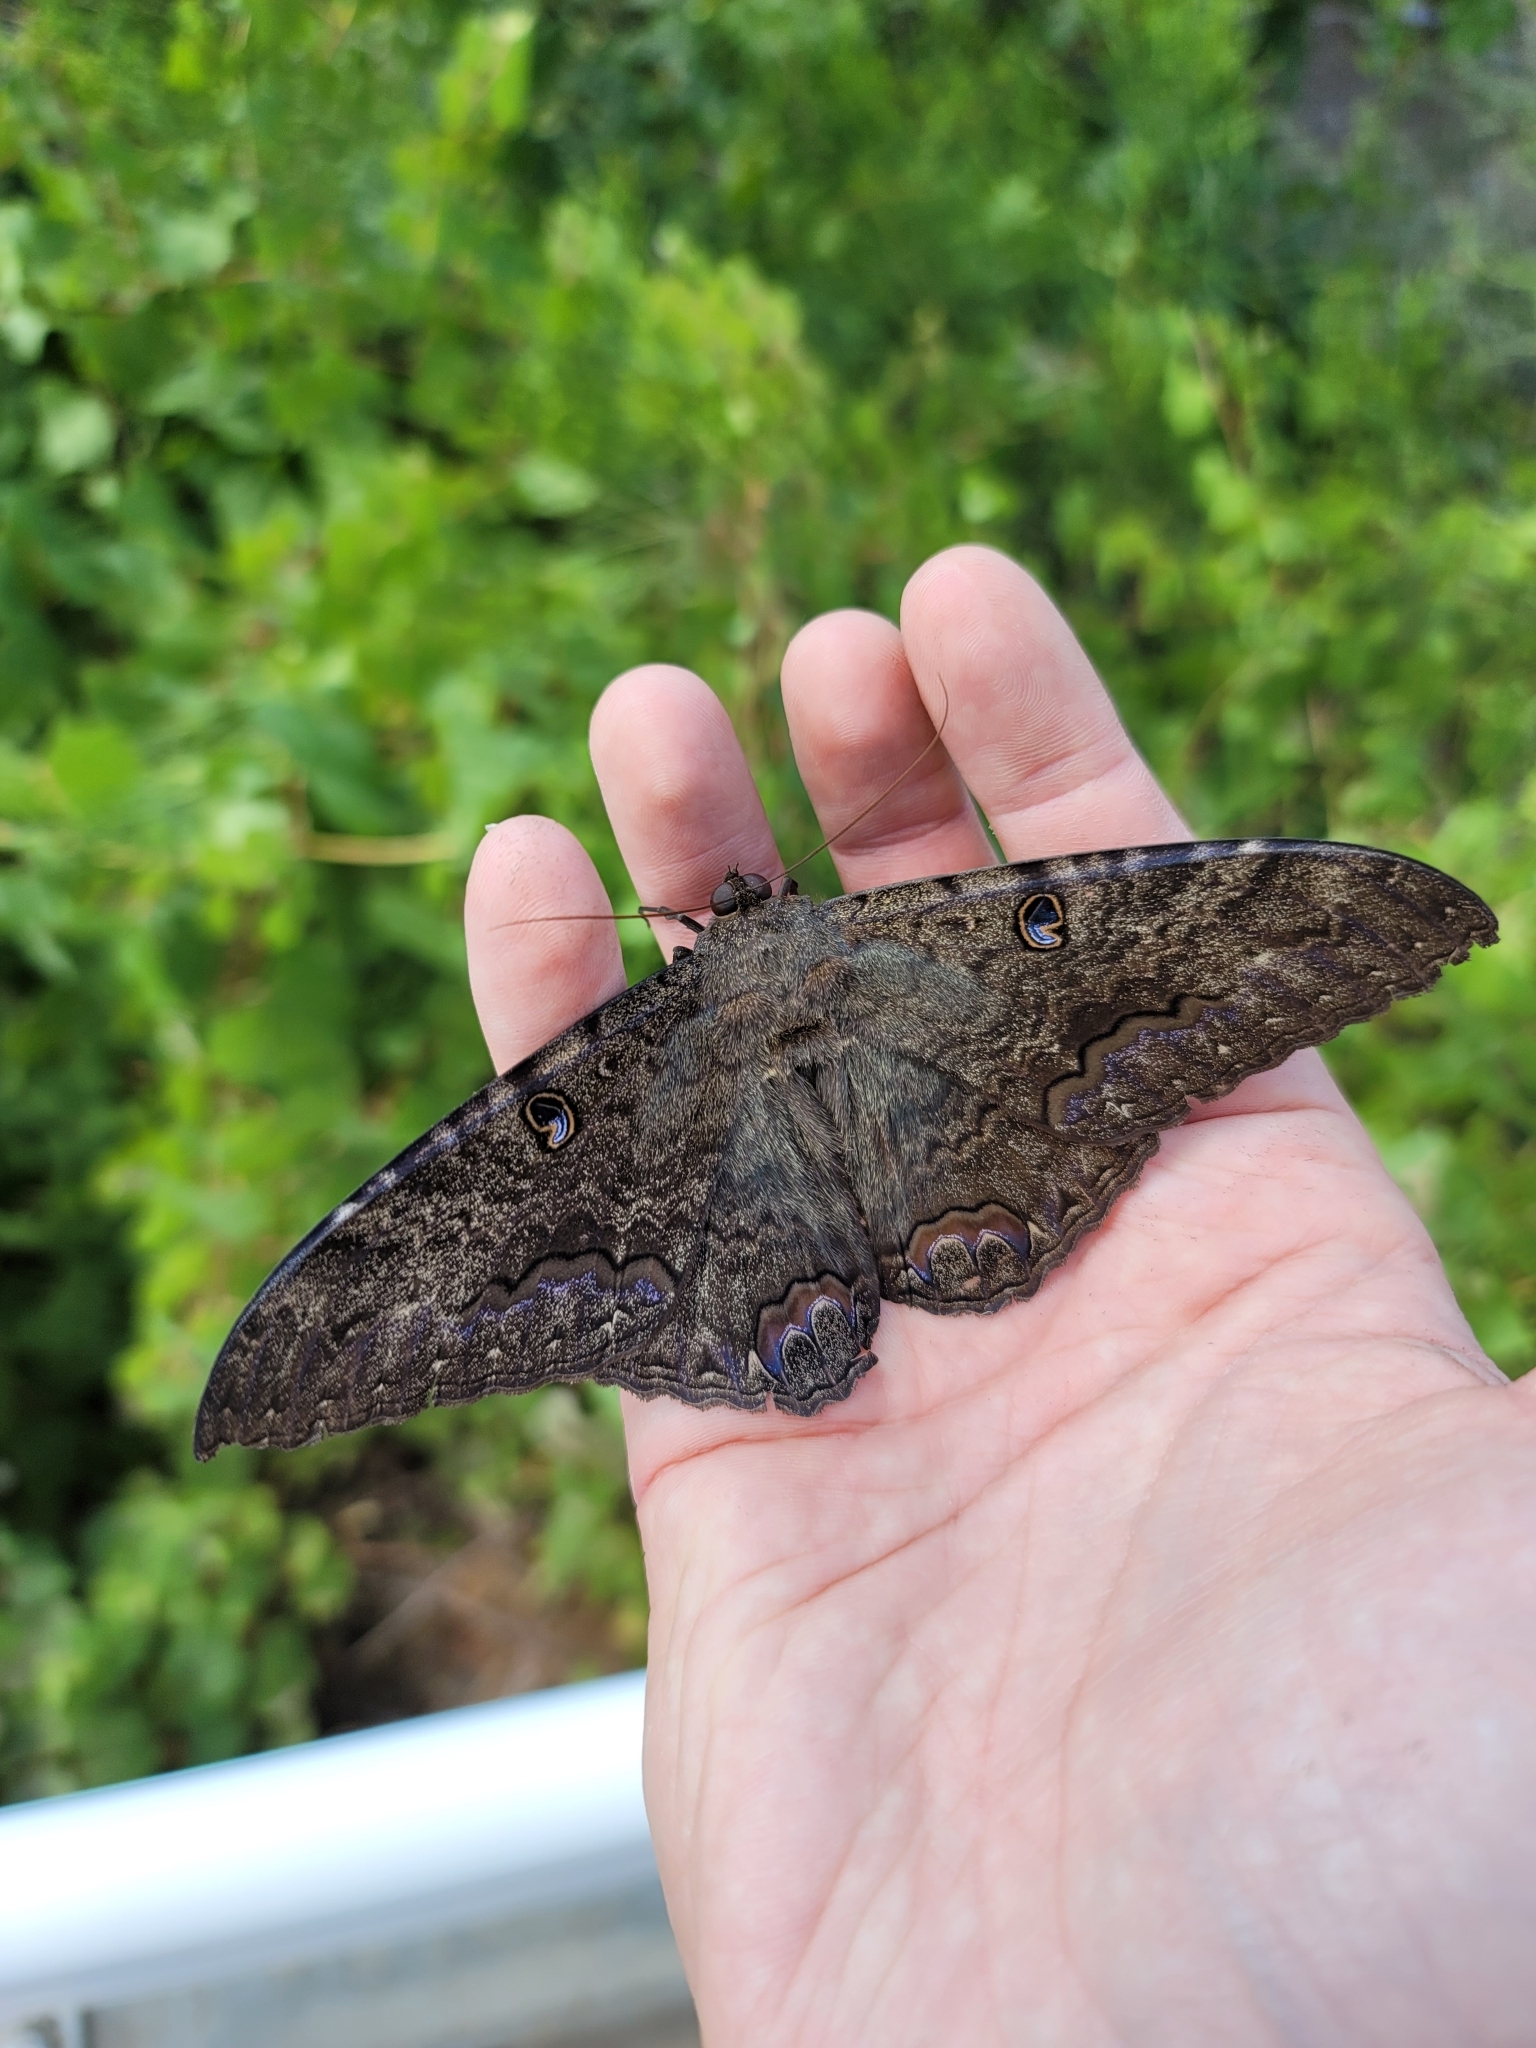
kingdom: Animalia
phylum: Arthropoda
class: Insecta
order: Lepidoptera
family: Erebidae
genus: Ascalapha
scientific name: Ascalapha odorata
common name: Black witch
